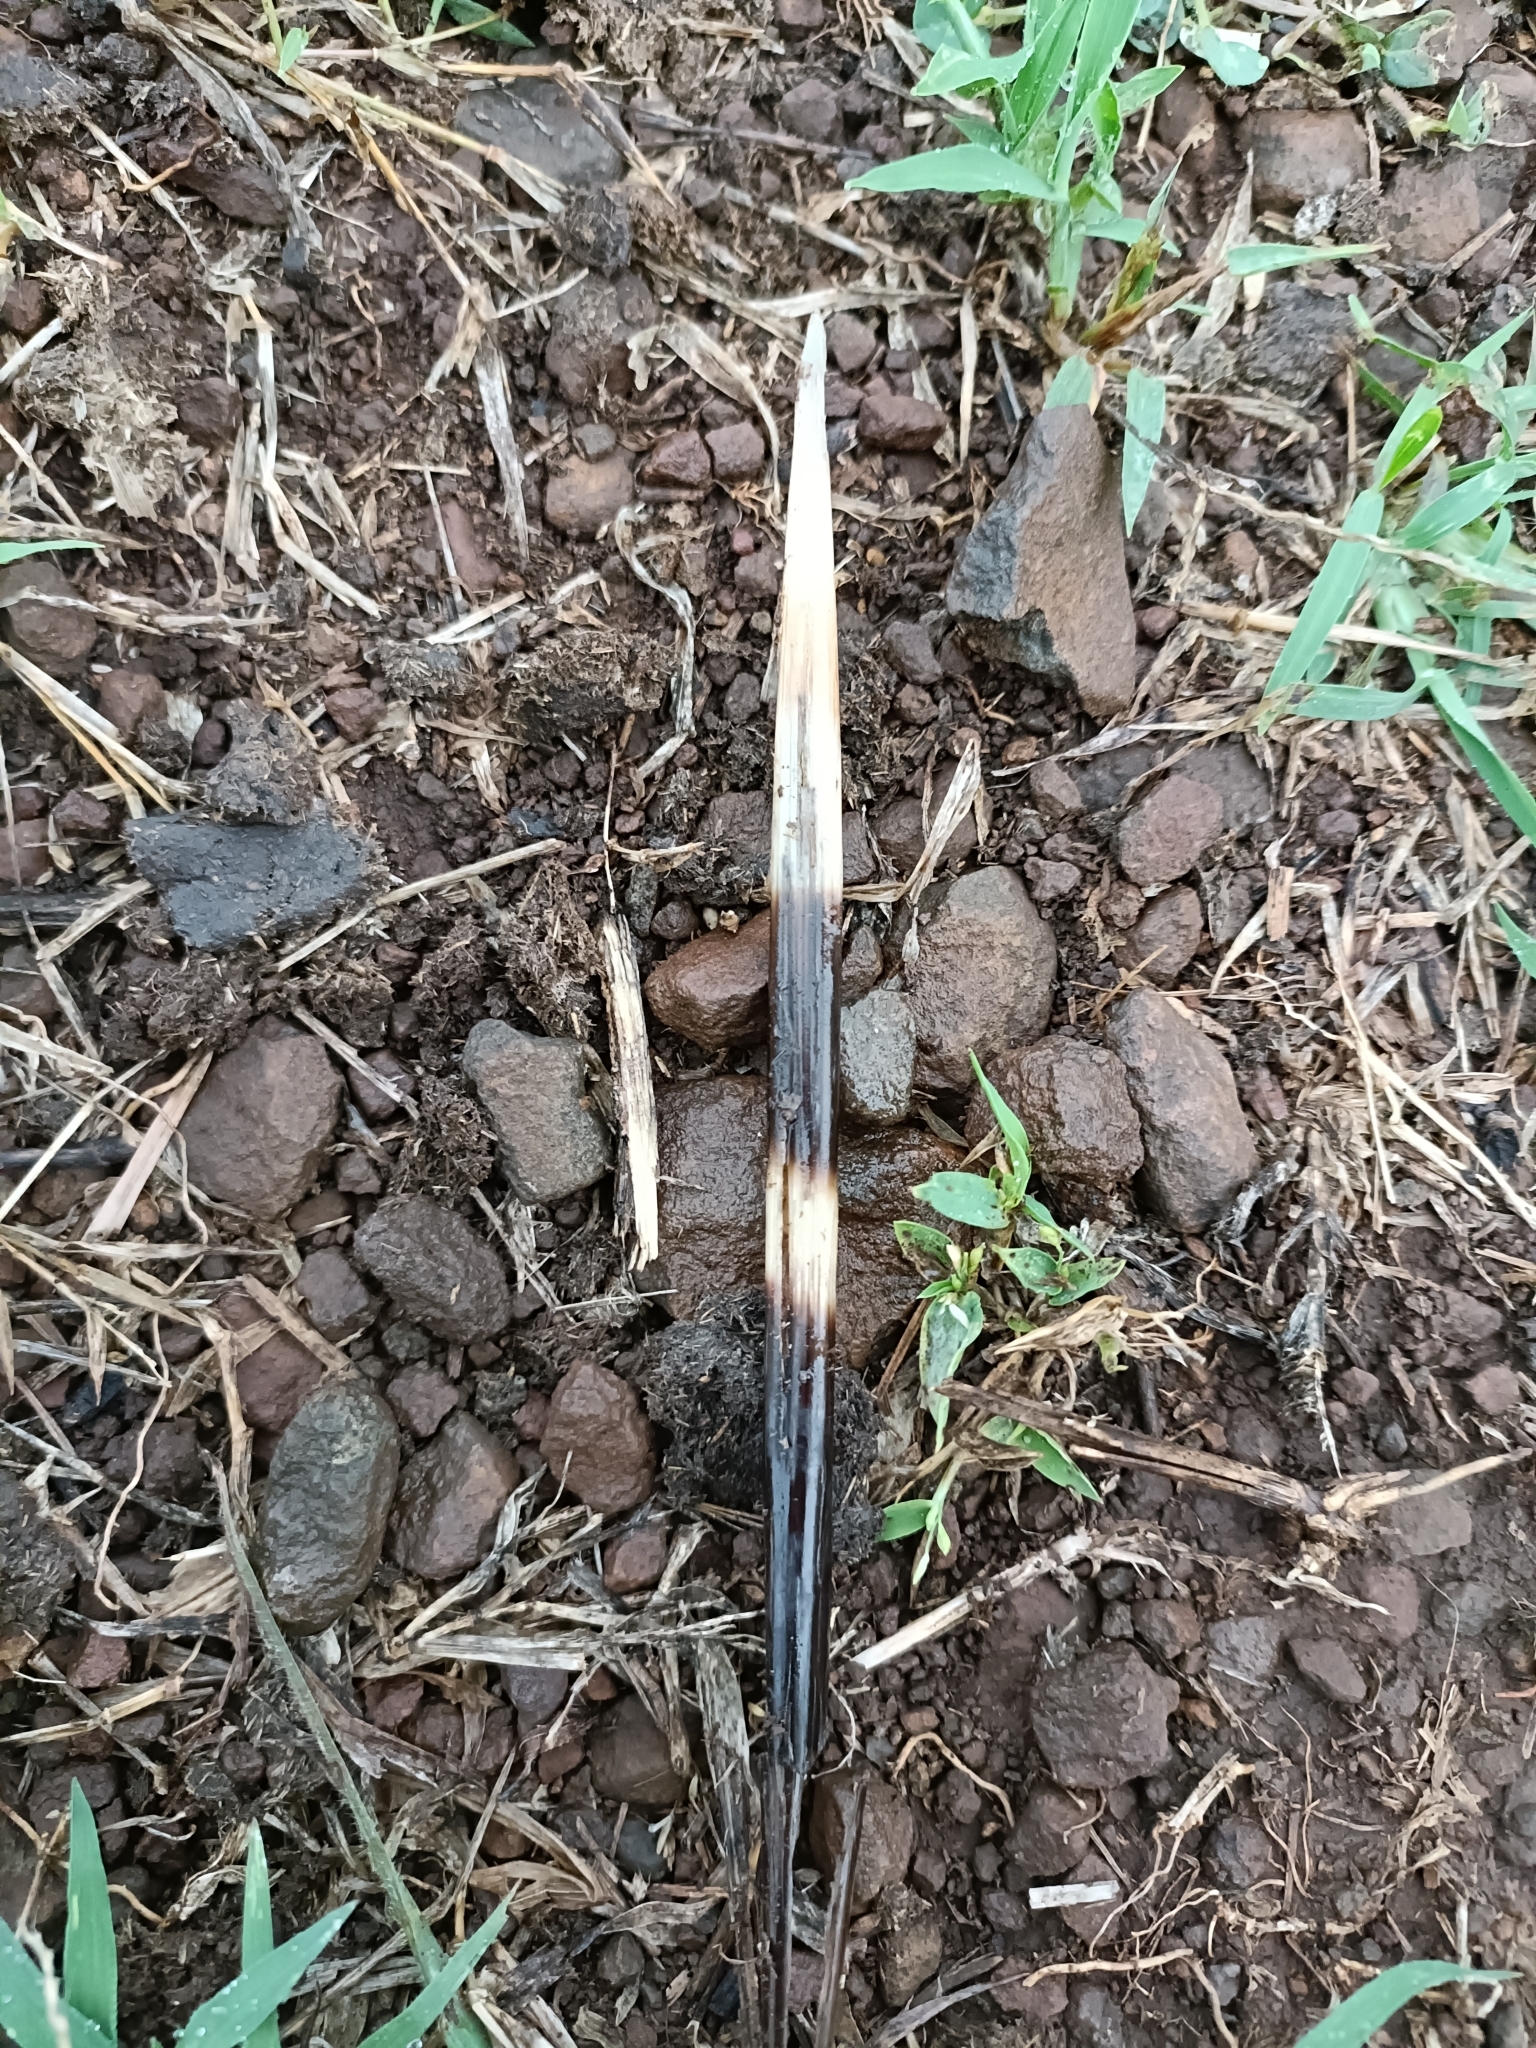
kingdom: Animalia
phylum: Chordata
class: Mammalia
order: Rodentia
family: Hystricidae
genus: Hystrix
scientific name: Hystrix indica
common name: Indian crested porcupine
